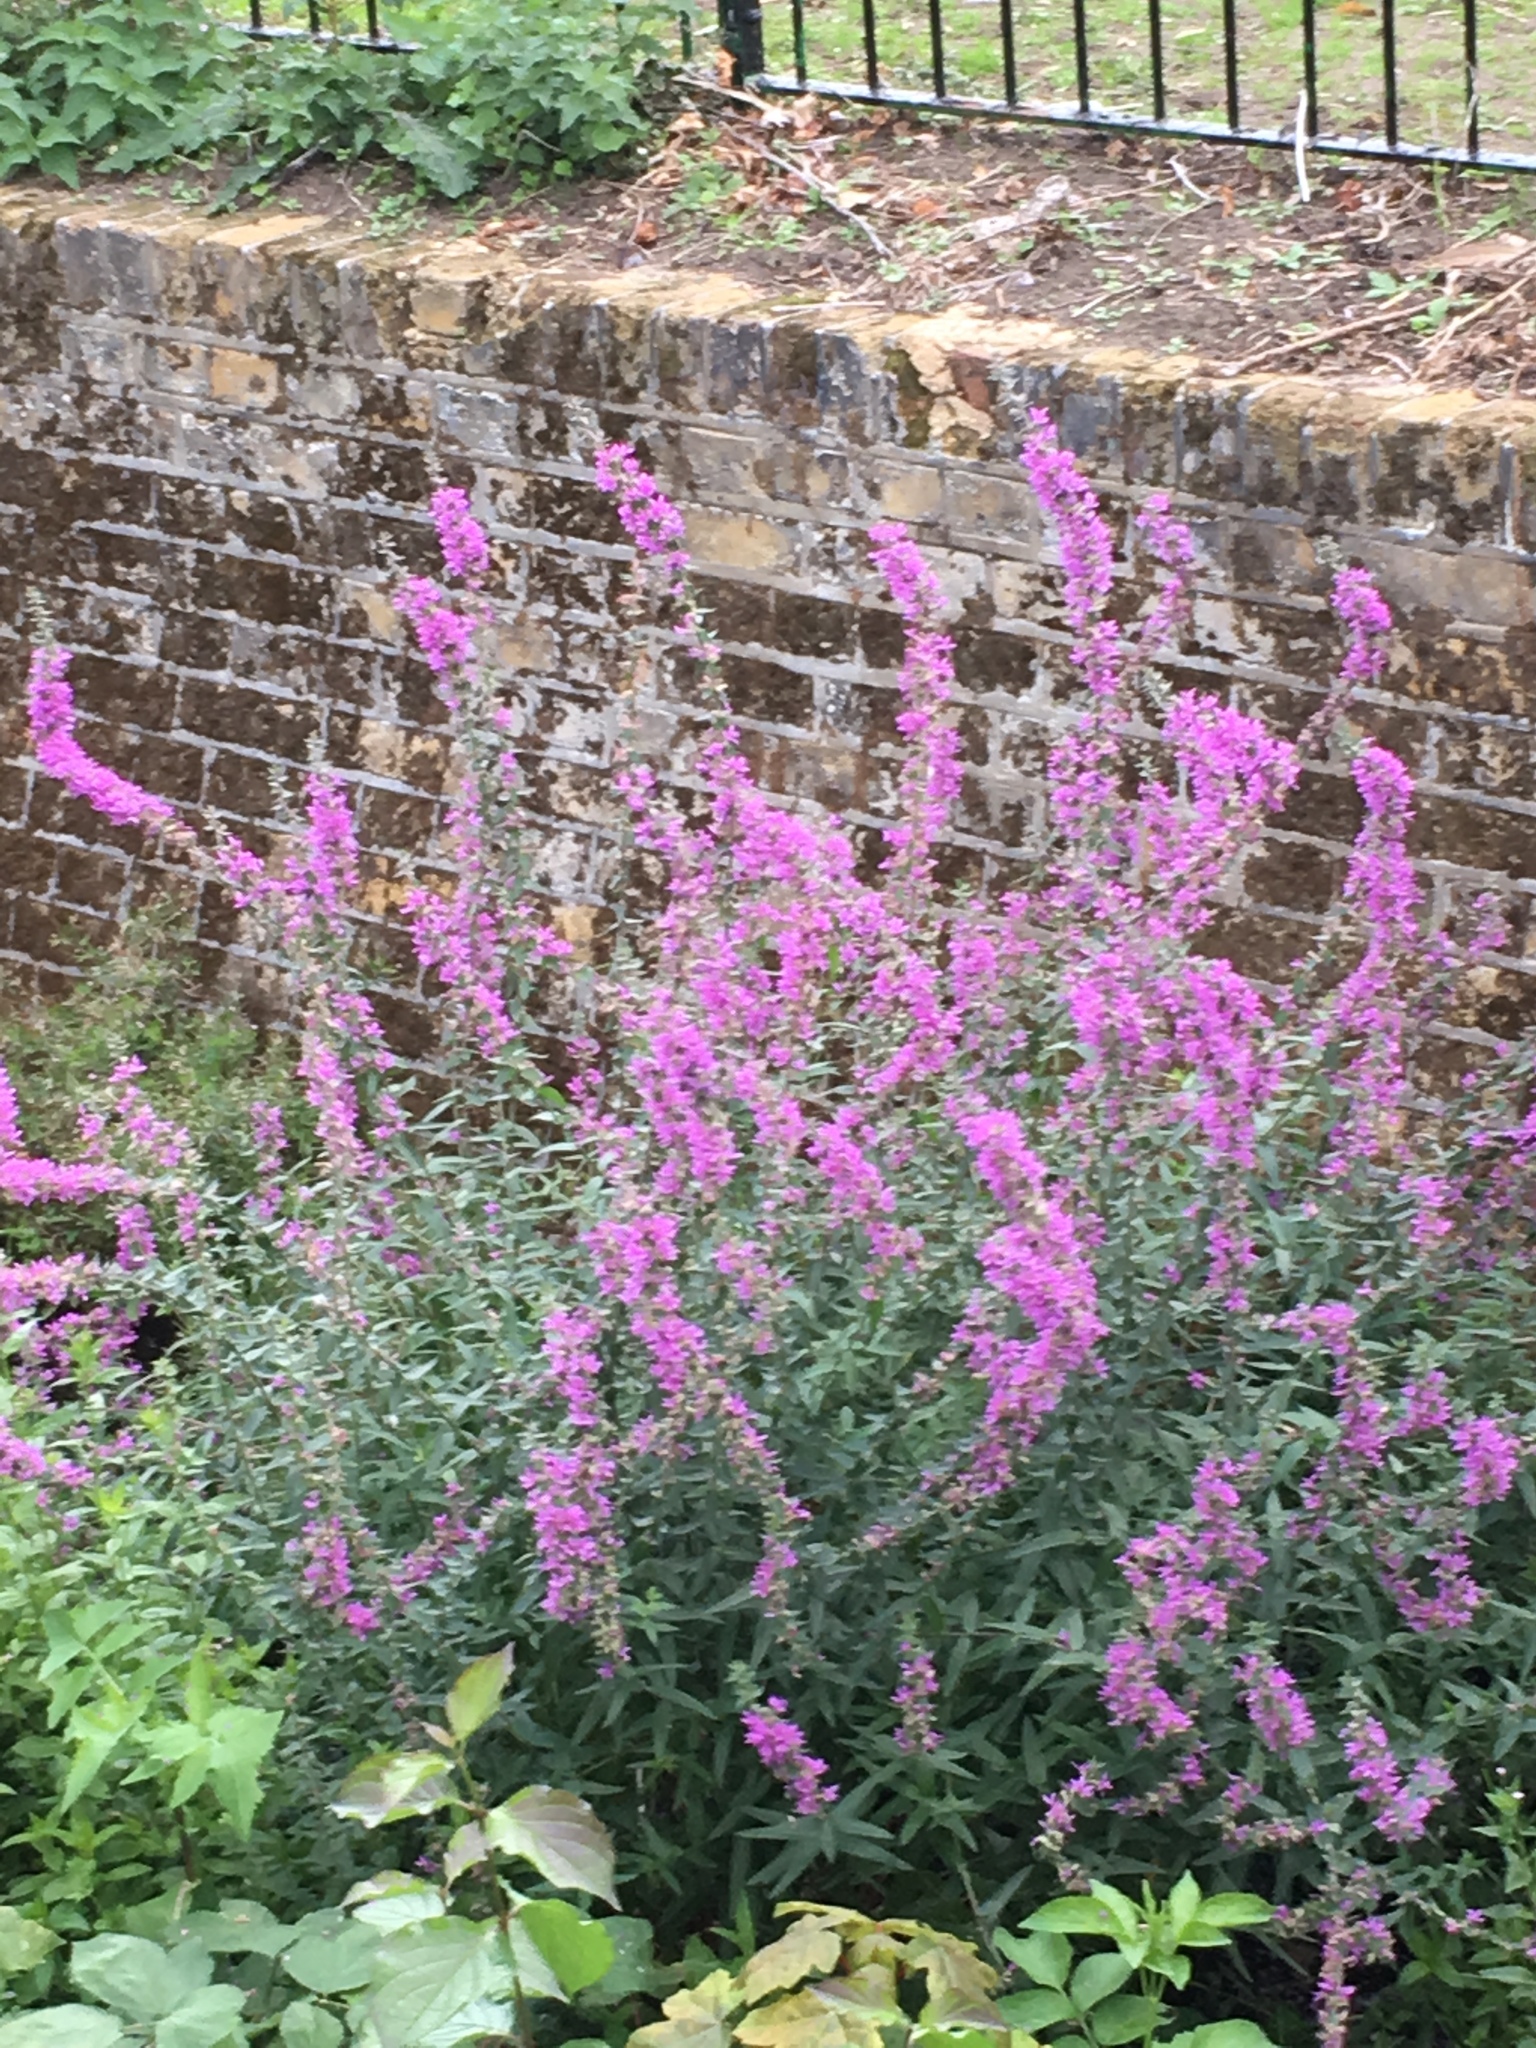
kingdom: Plantae
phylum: Tracheophyta
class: Magnoliopsida
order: Myrtales
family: Lythraceae
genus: Lythrum
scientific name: Lythrum salicaria
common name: Purple loosestrife
